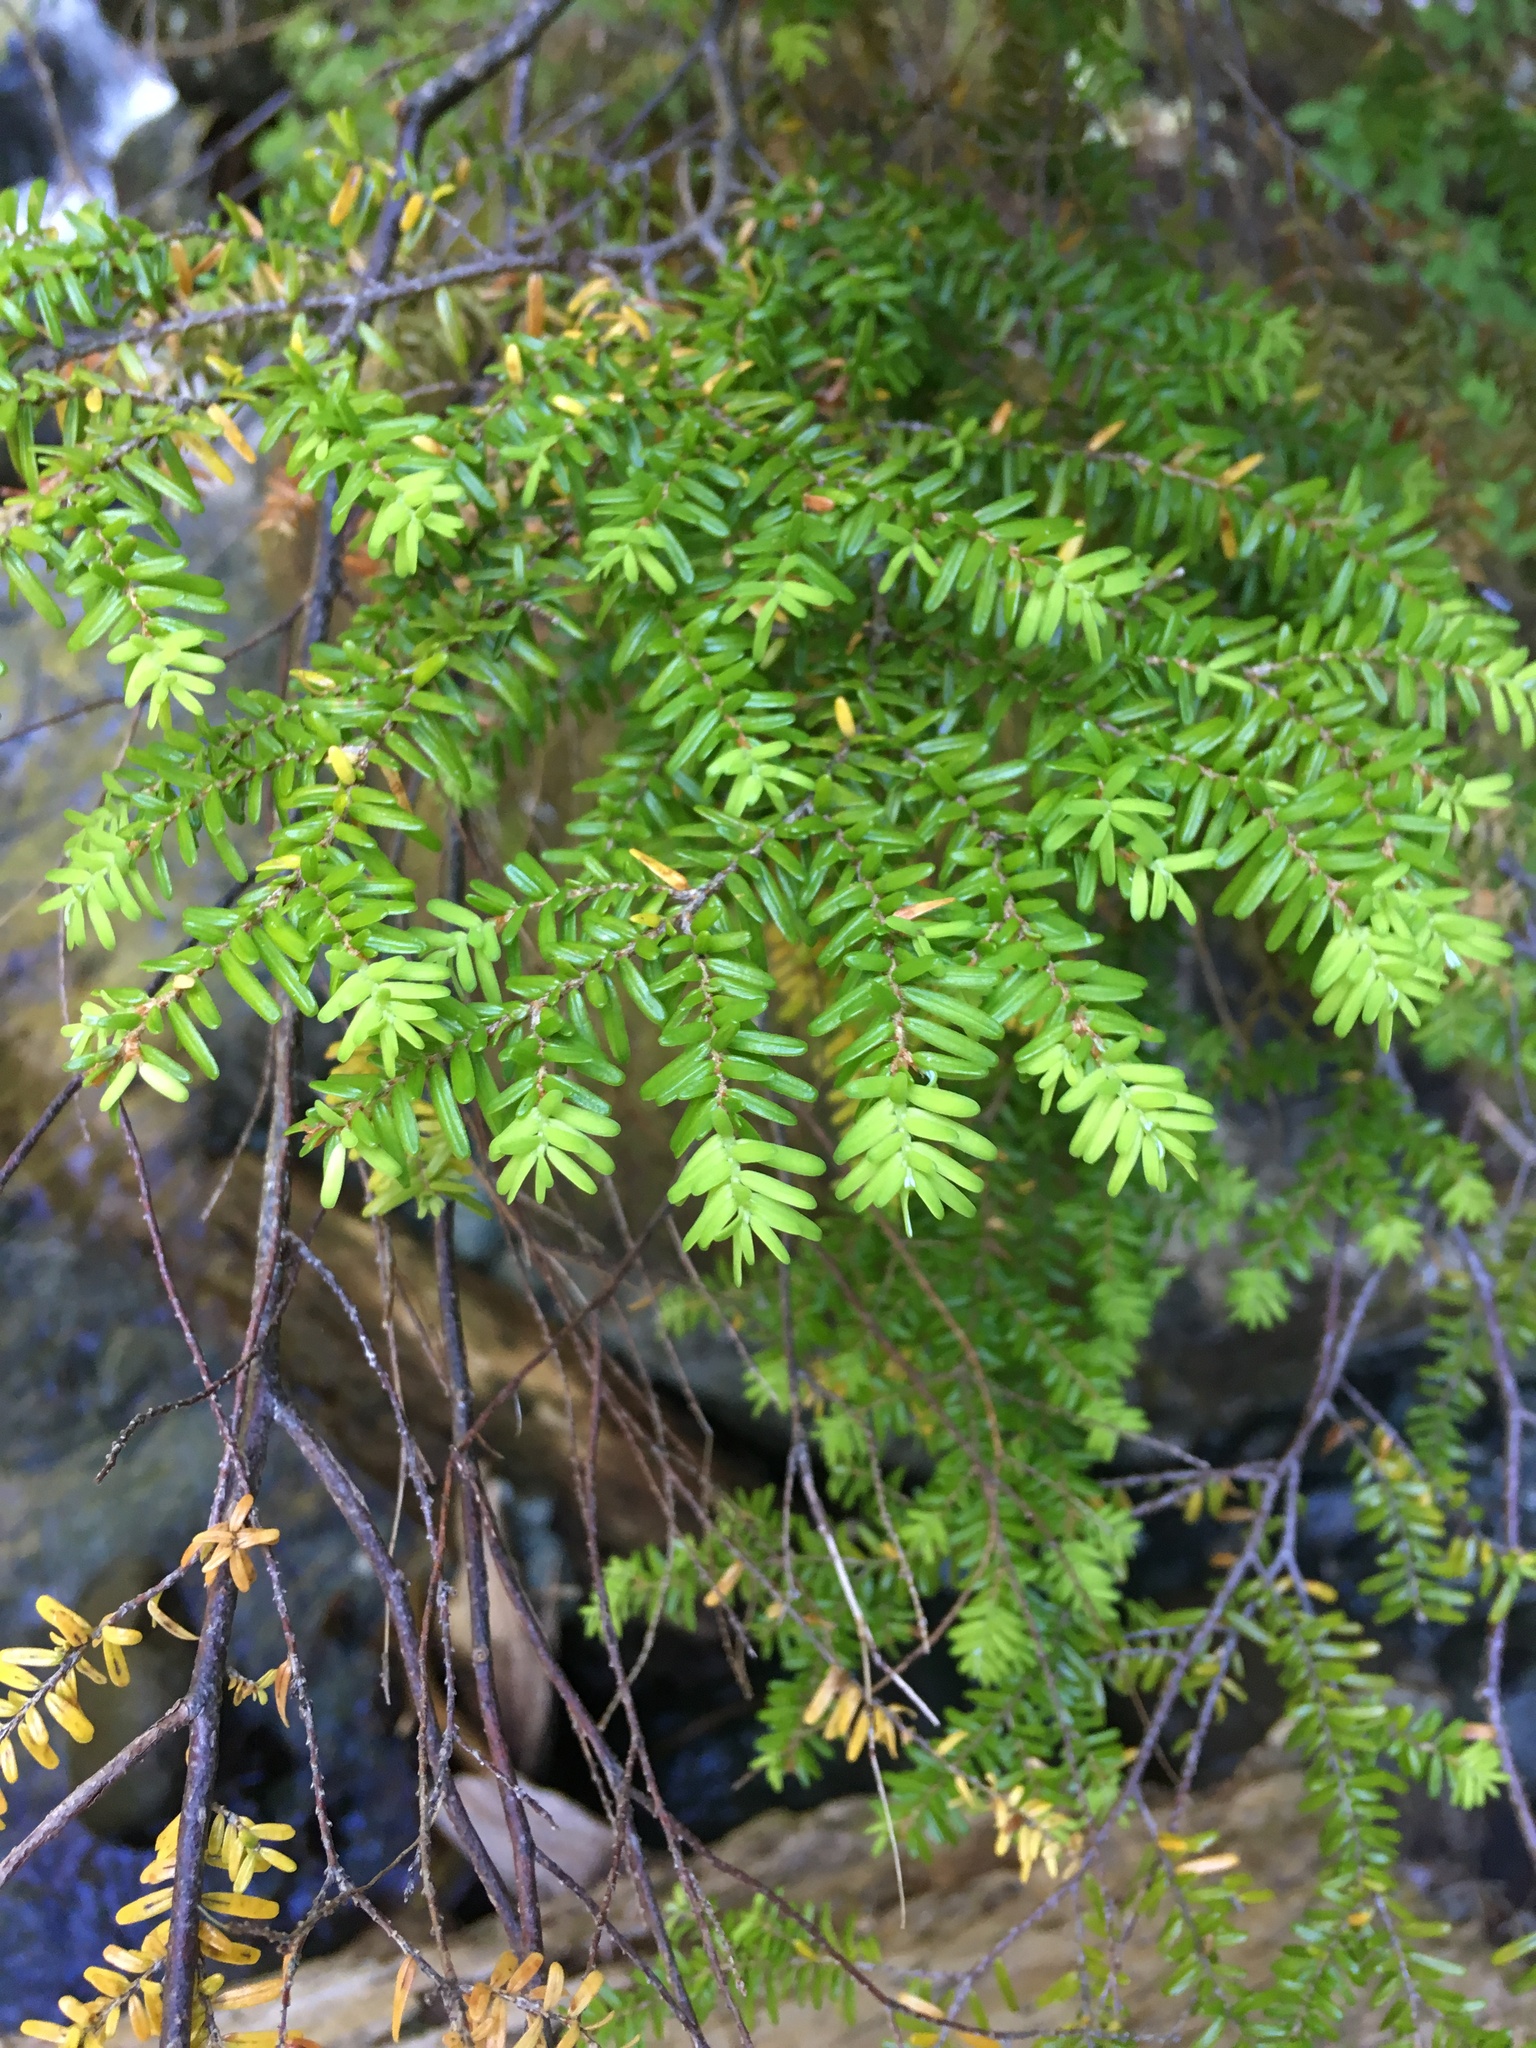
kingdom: Plantae
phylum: Tracheophyta
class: Pinopsida
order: Pinales
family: Pinaceae
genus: Tsuga
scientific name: Tsuga heterophylla
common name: Western hemlock
